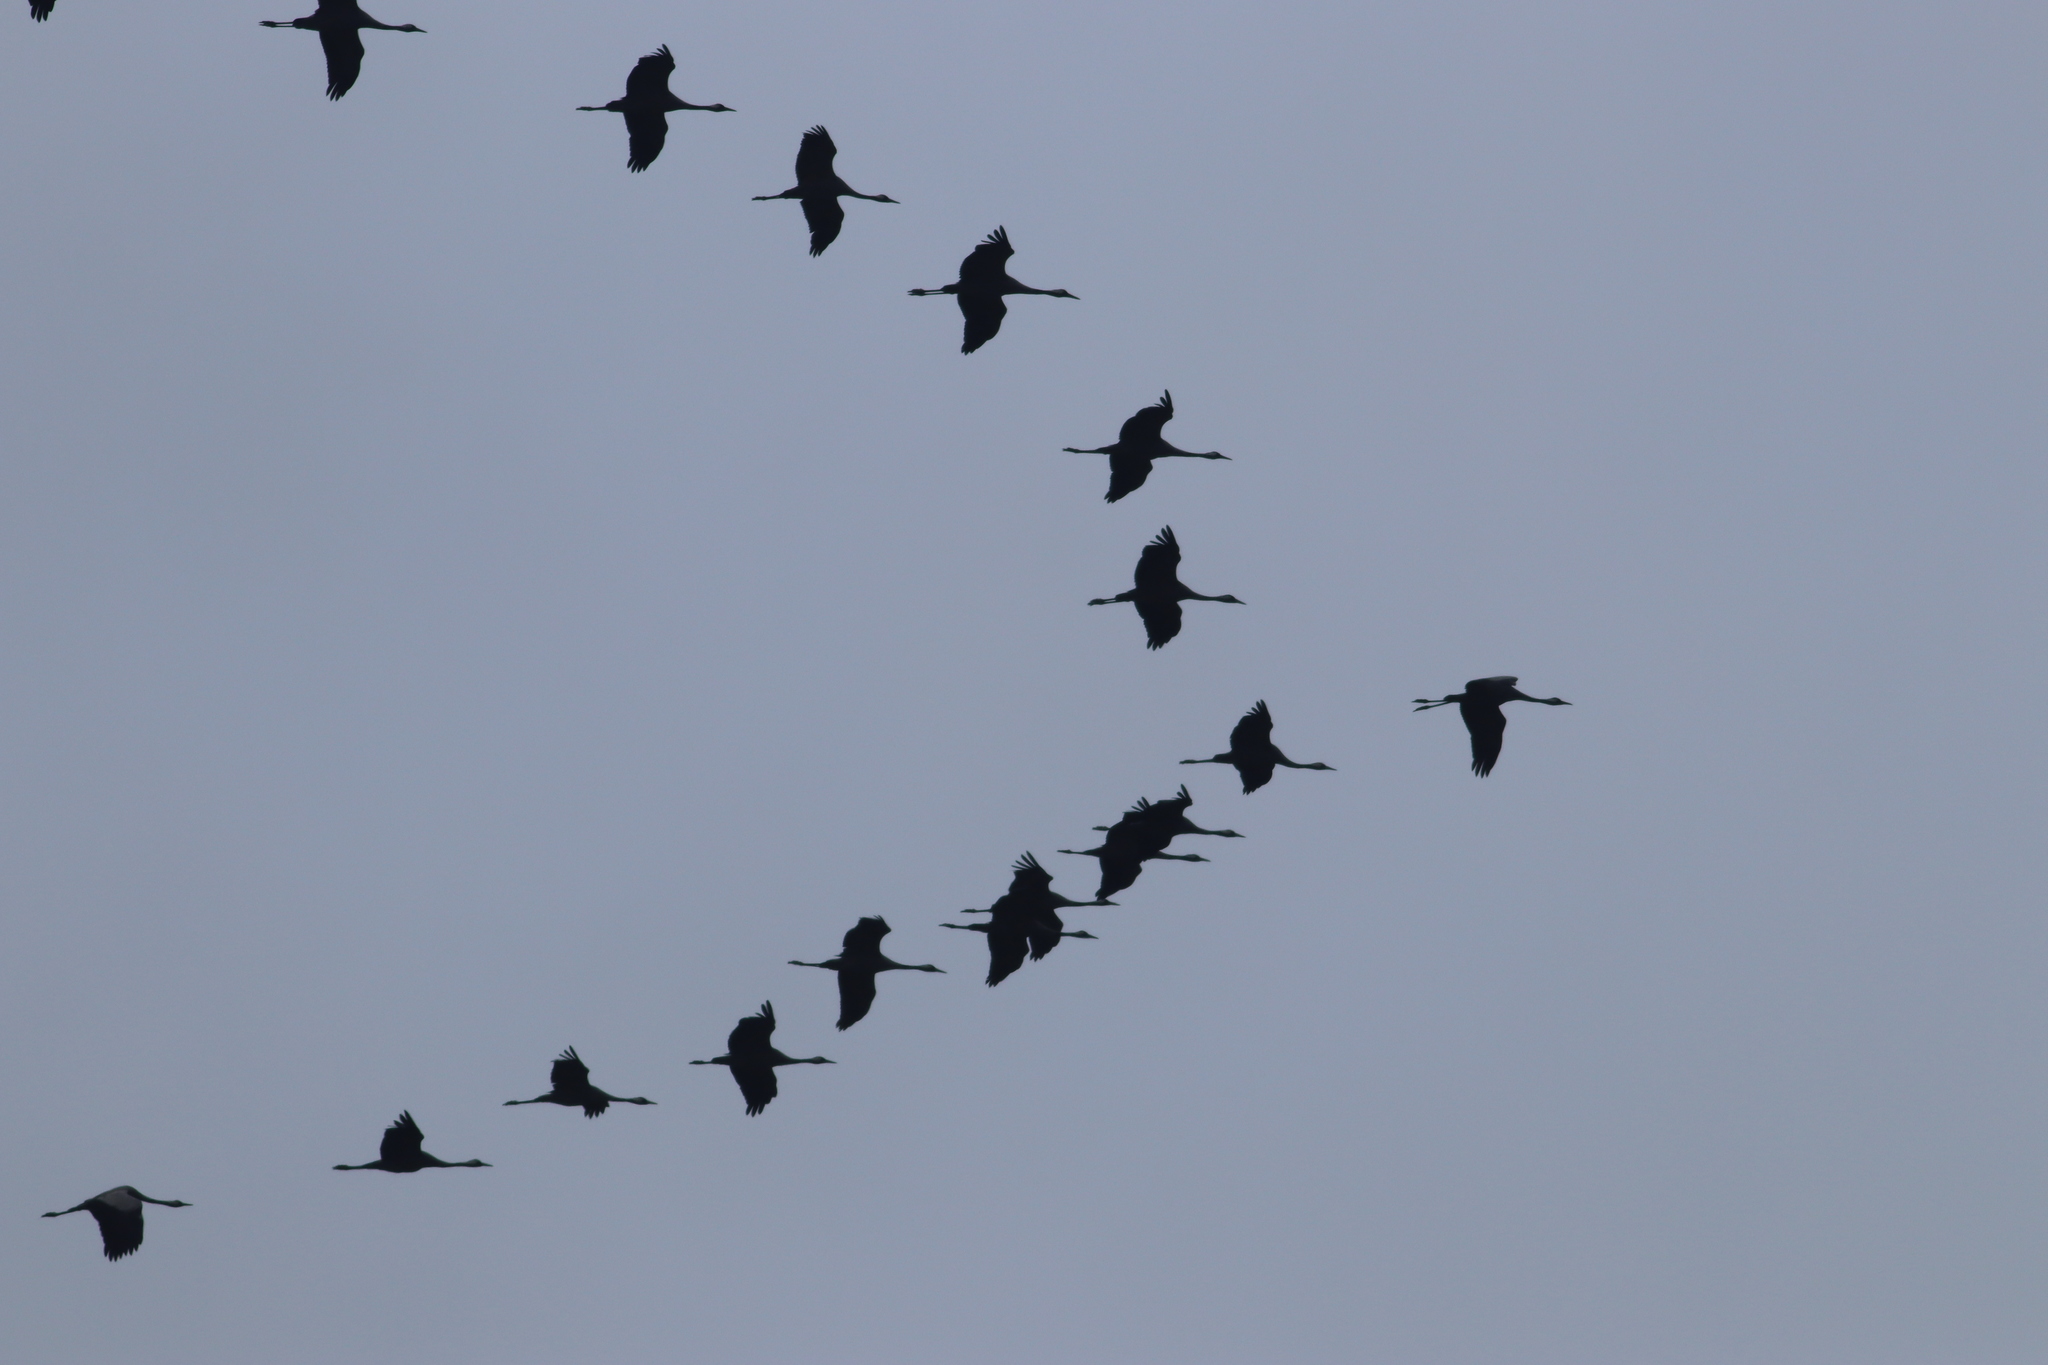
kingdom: Animalia
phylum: Chordata
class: Aves
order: Gruiformes
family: Gruidae
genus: Grus
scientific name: Grus grus
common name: Common crane
